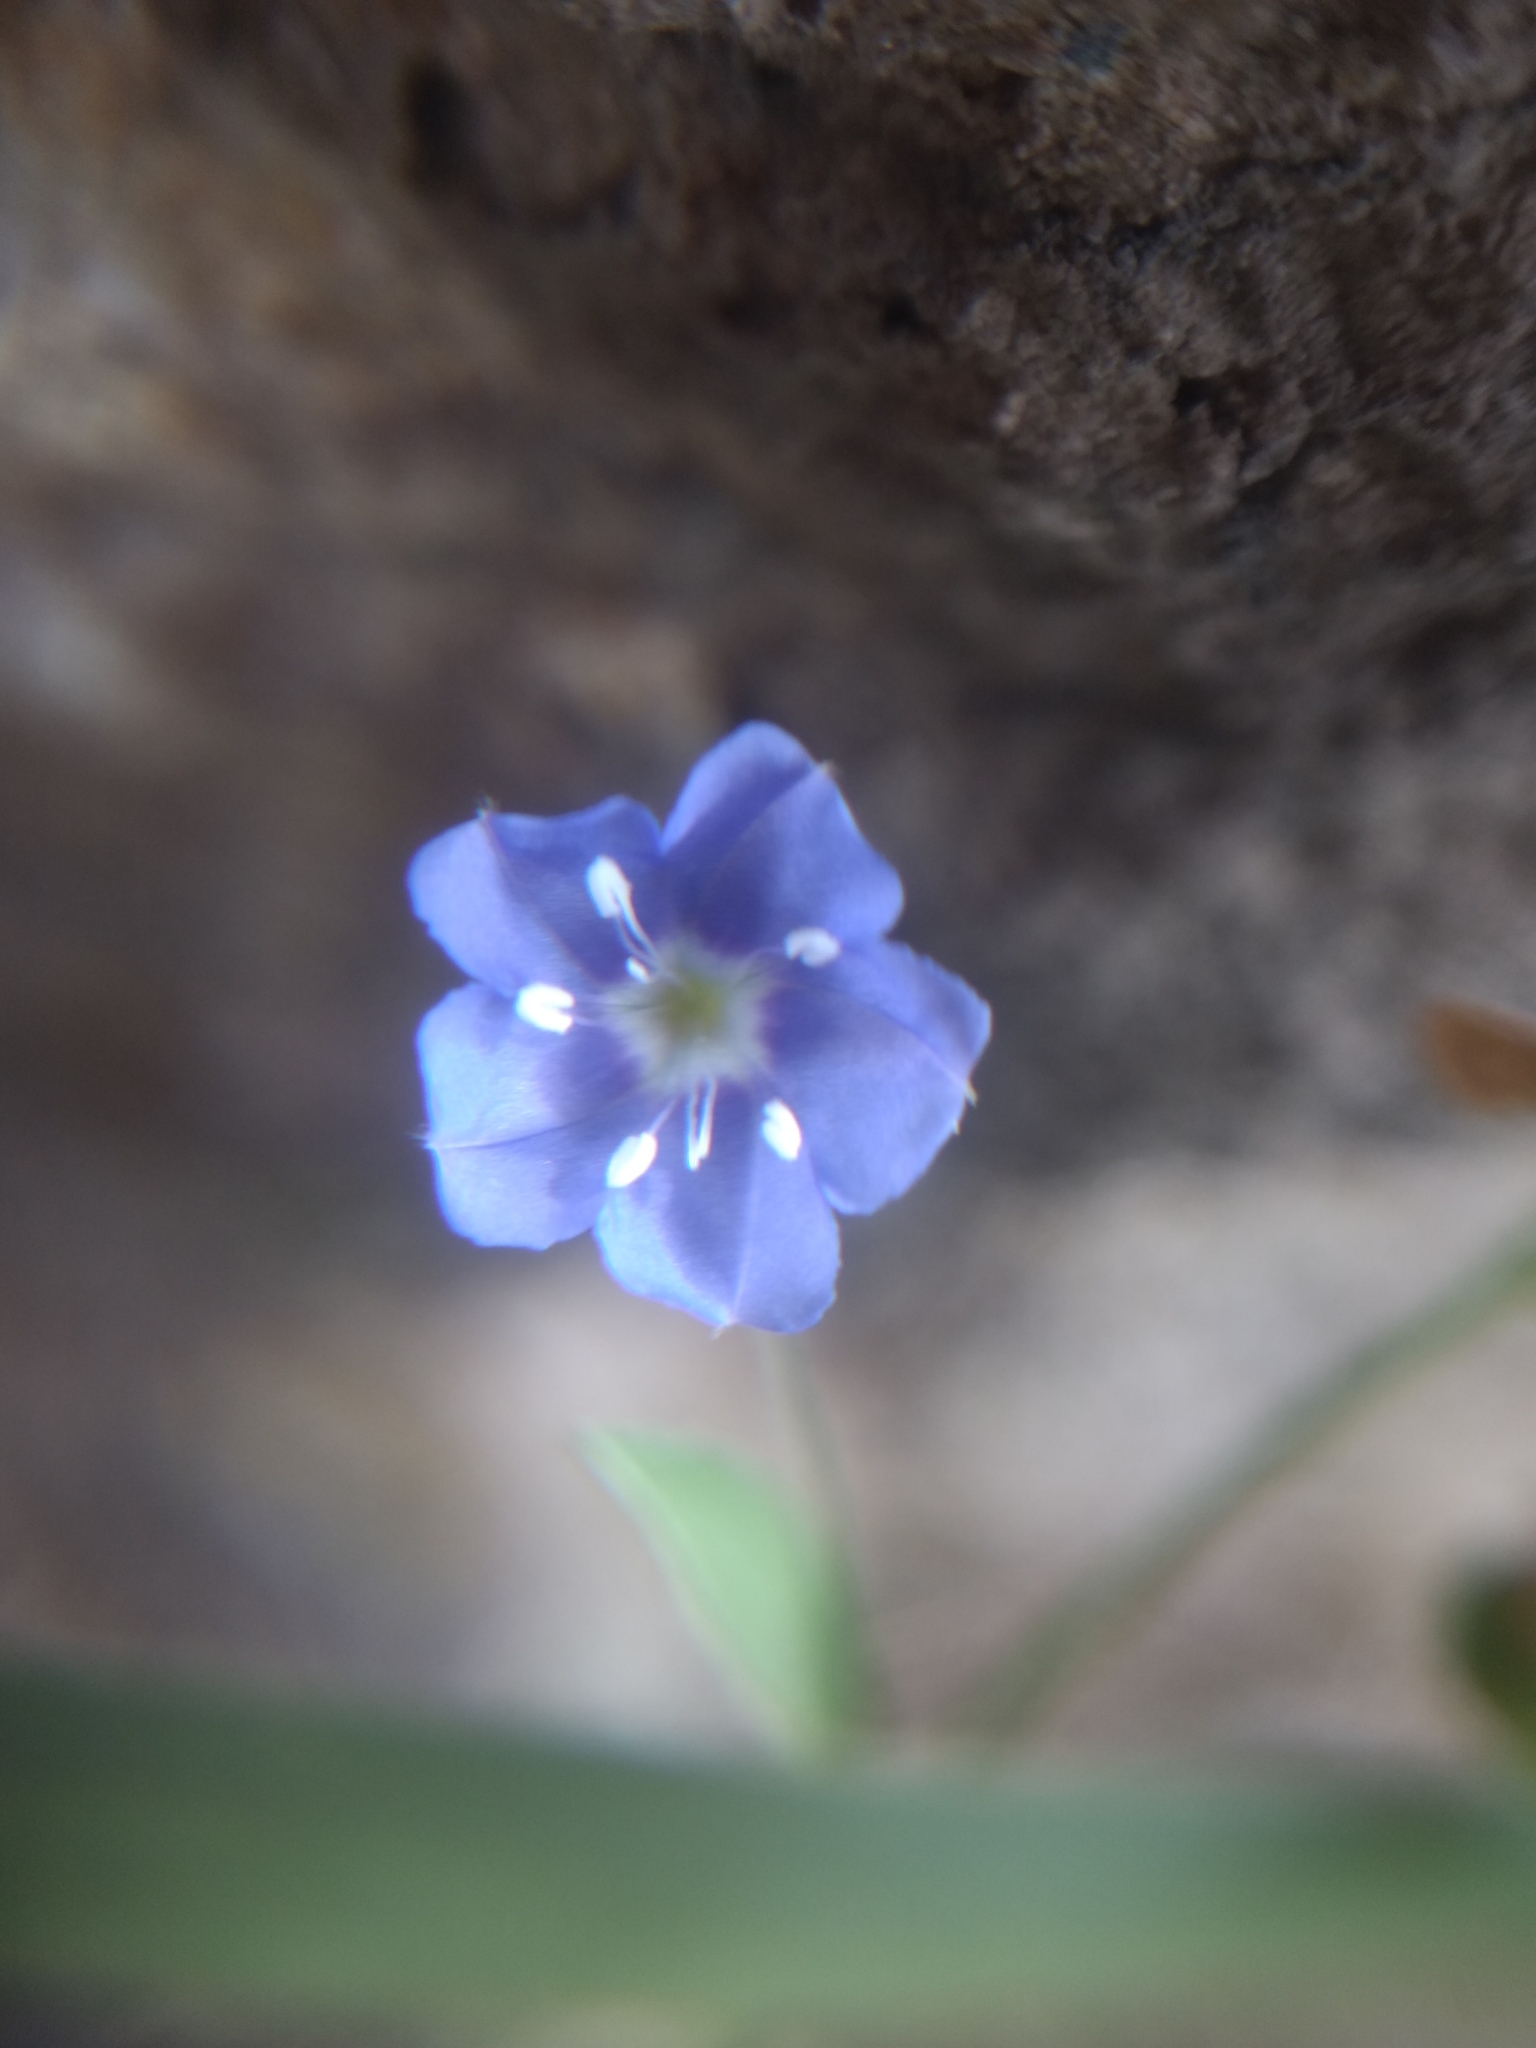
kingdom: Plantae
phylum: Tracheophyta
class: Magnoliopsida
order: Solanales
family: Convolvulaceae
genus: Evolvulus
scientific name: Evolvulus alsinoides
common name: Slender dwarf morning-glory
